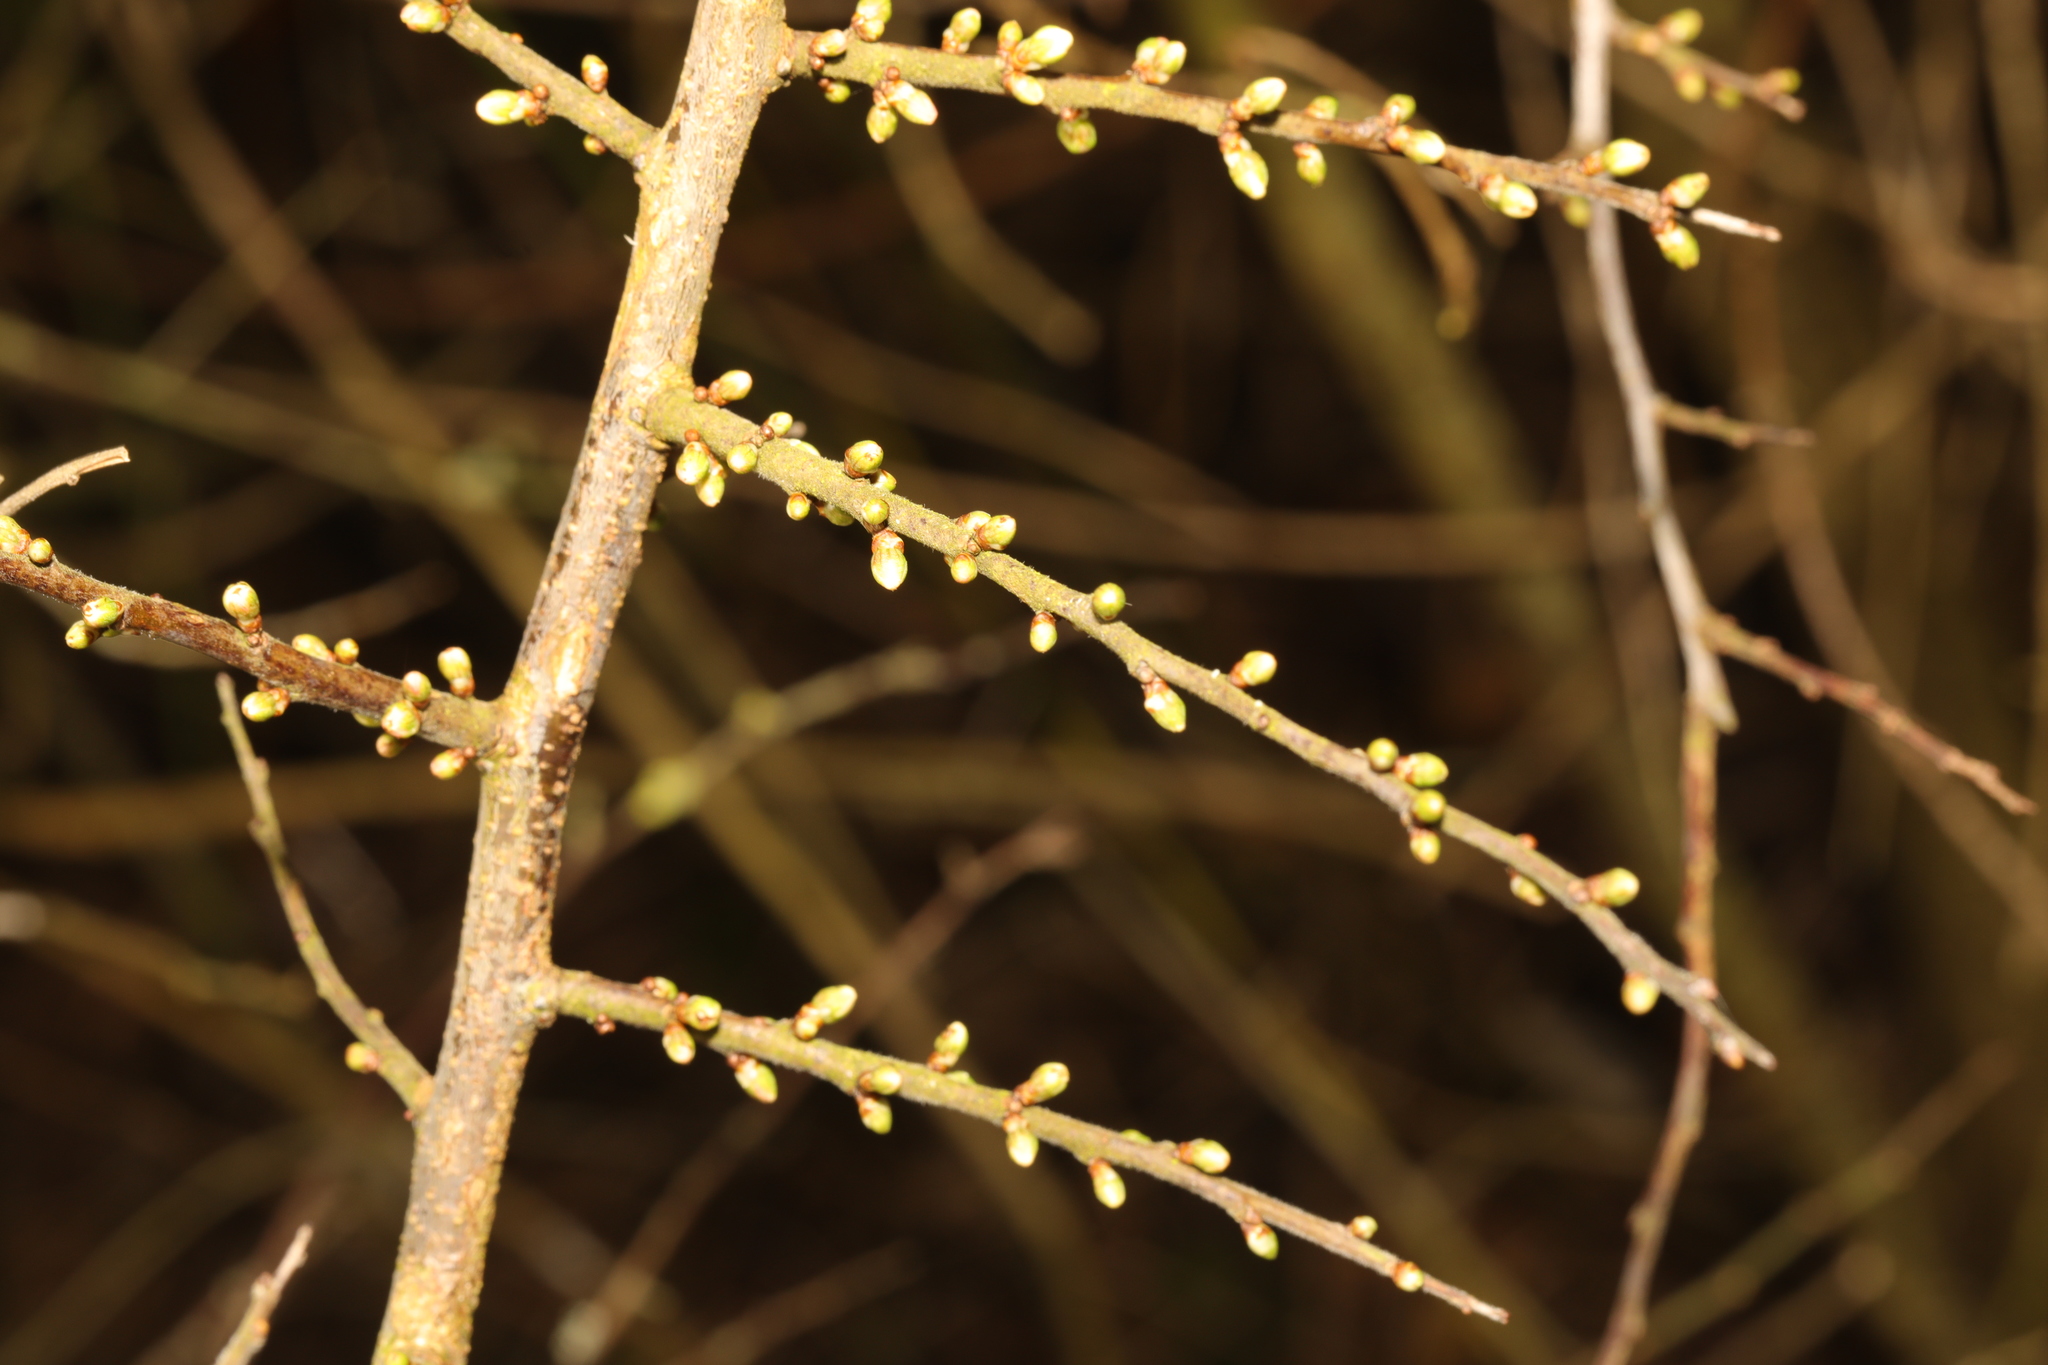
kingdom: Plantae
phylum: Tracheophyta
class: Magnoliopsida
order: Rosales
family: Rosaceae
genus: Prunus
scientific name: Prunus spinosa
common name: Blackthorn
